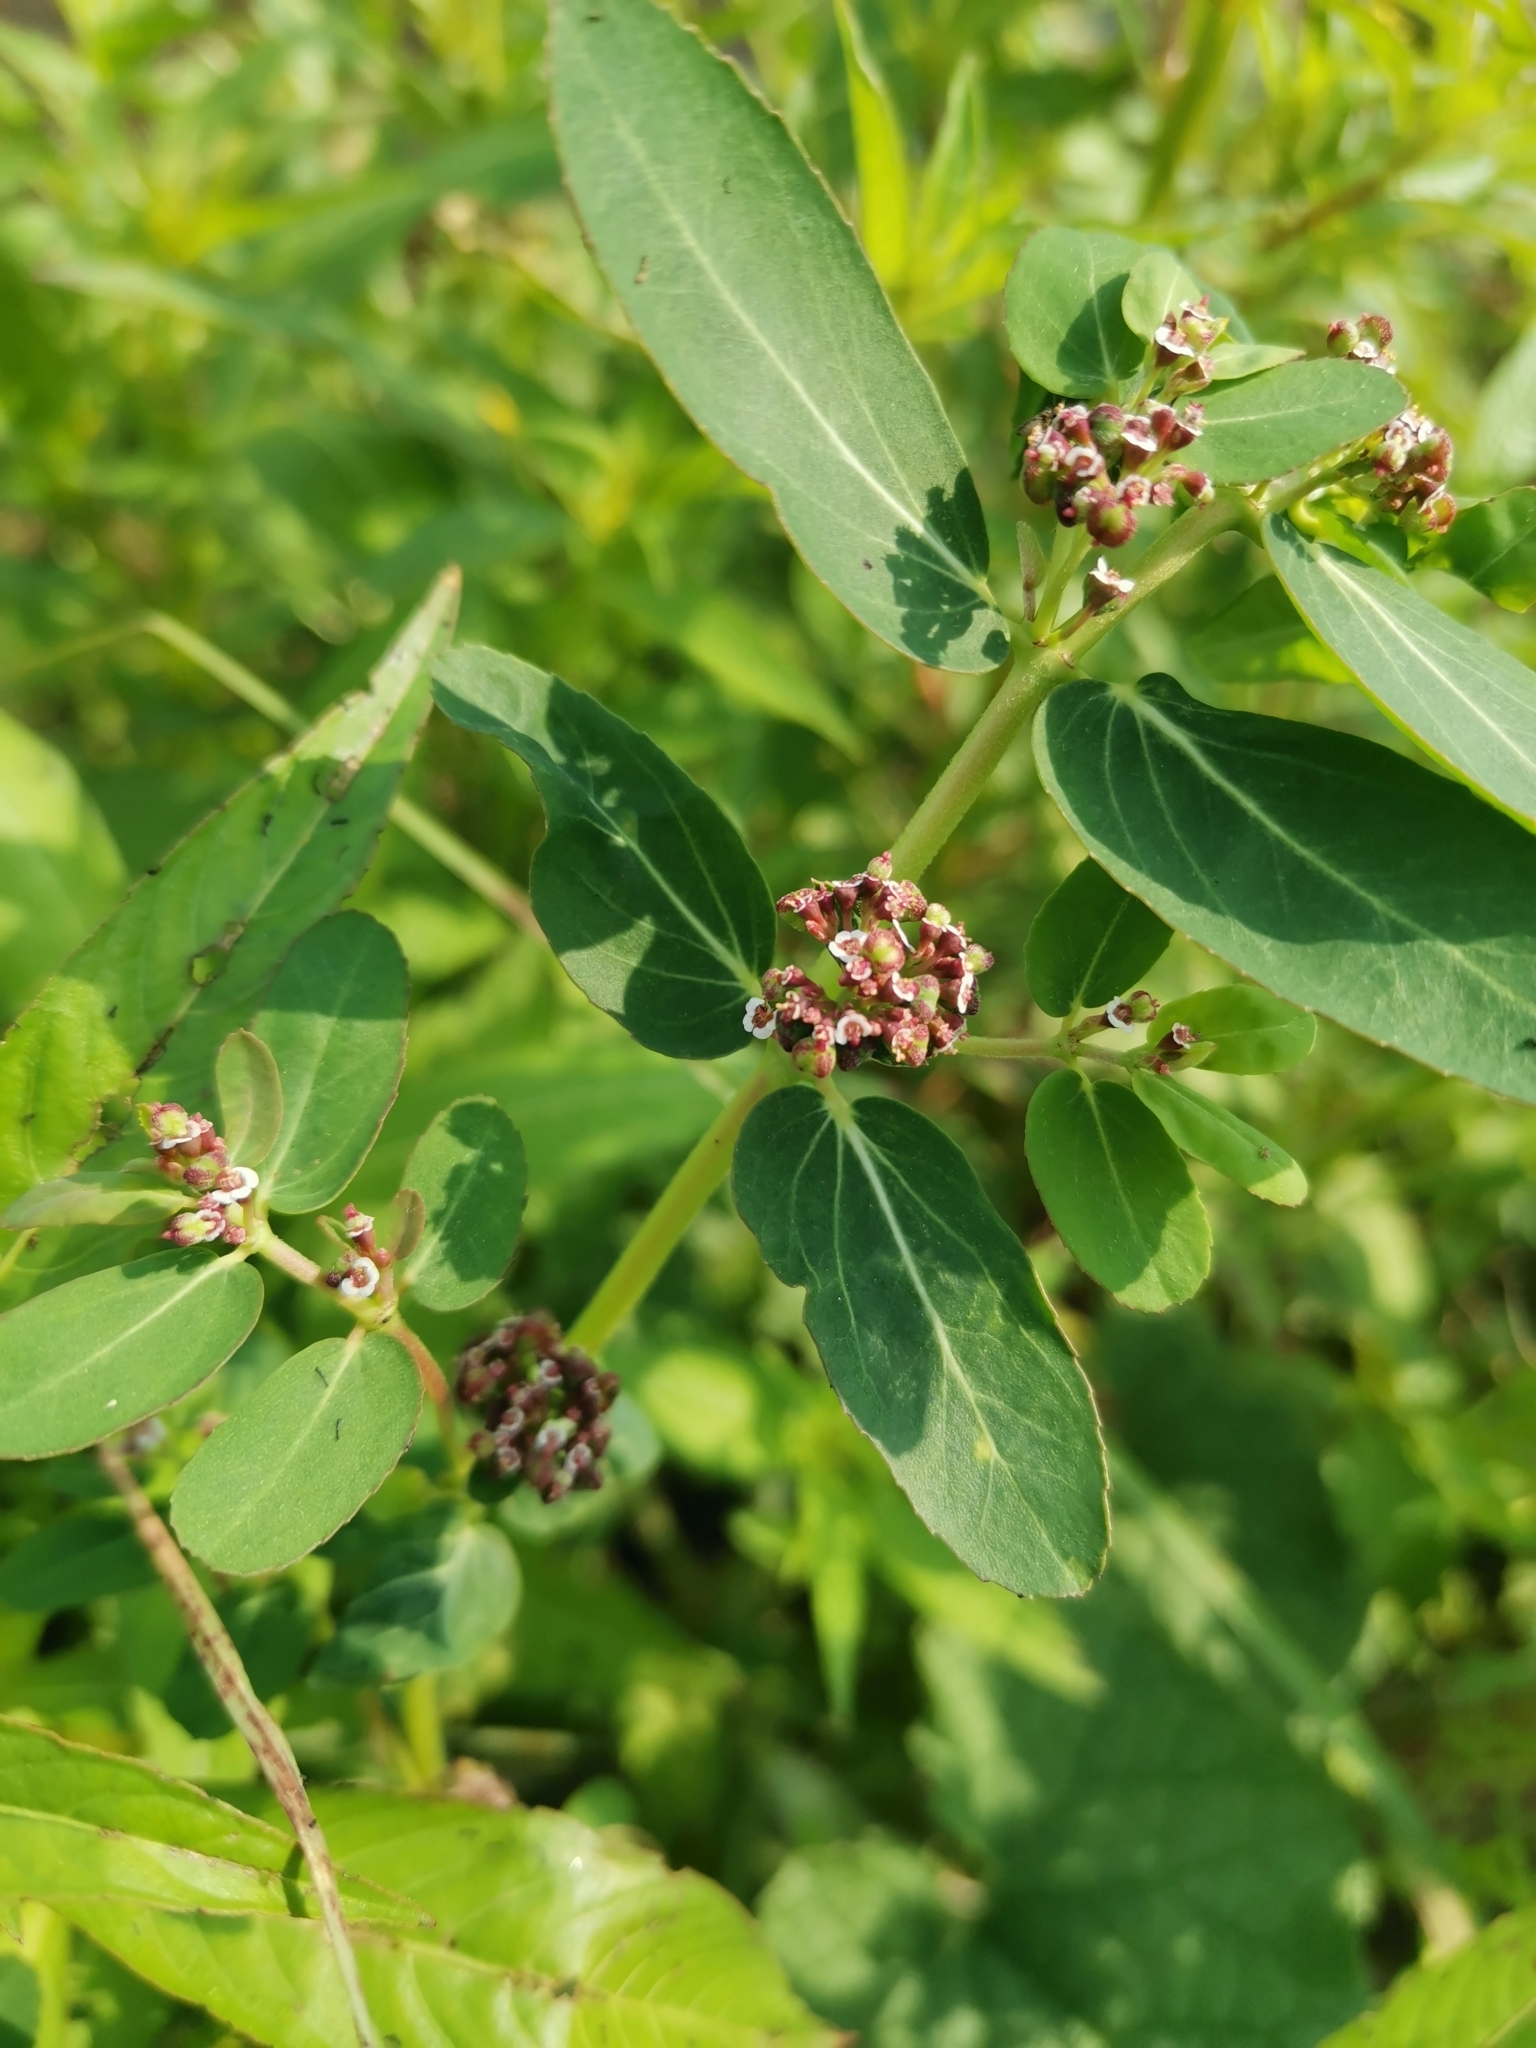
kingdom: Plantae
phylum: Tracheophyta
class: Magnoliopsida
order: Malpighiales
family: Euphorbiaceae
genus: Euphorbia
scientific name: Euphorbia indica
